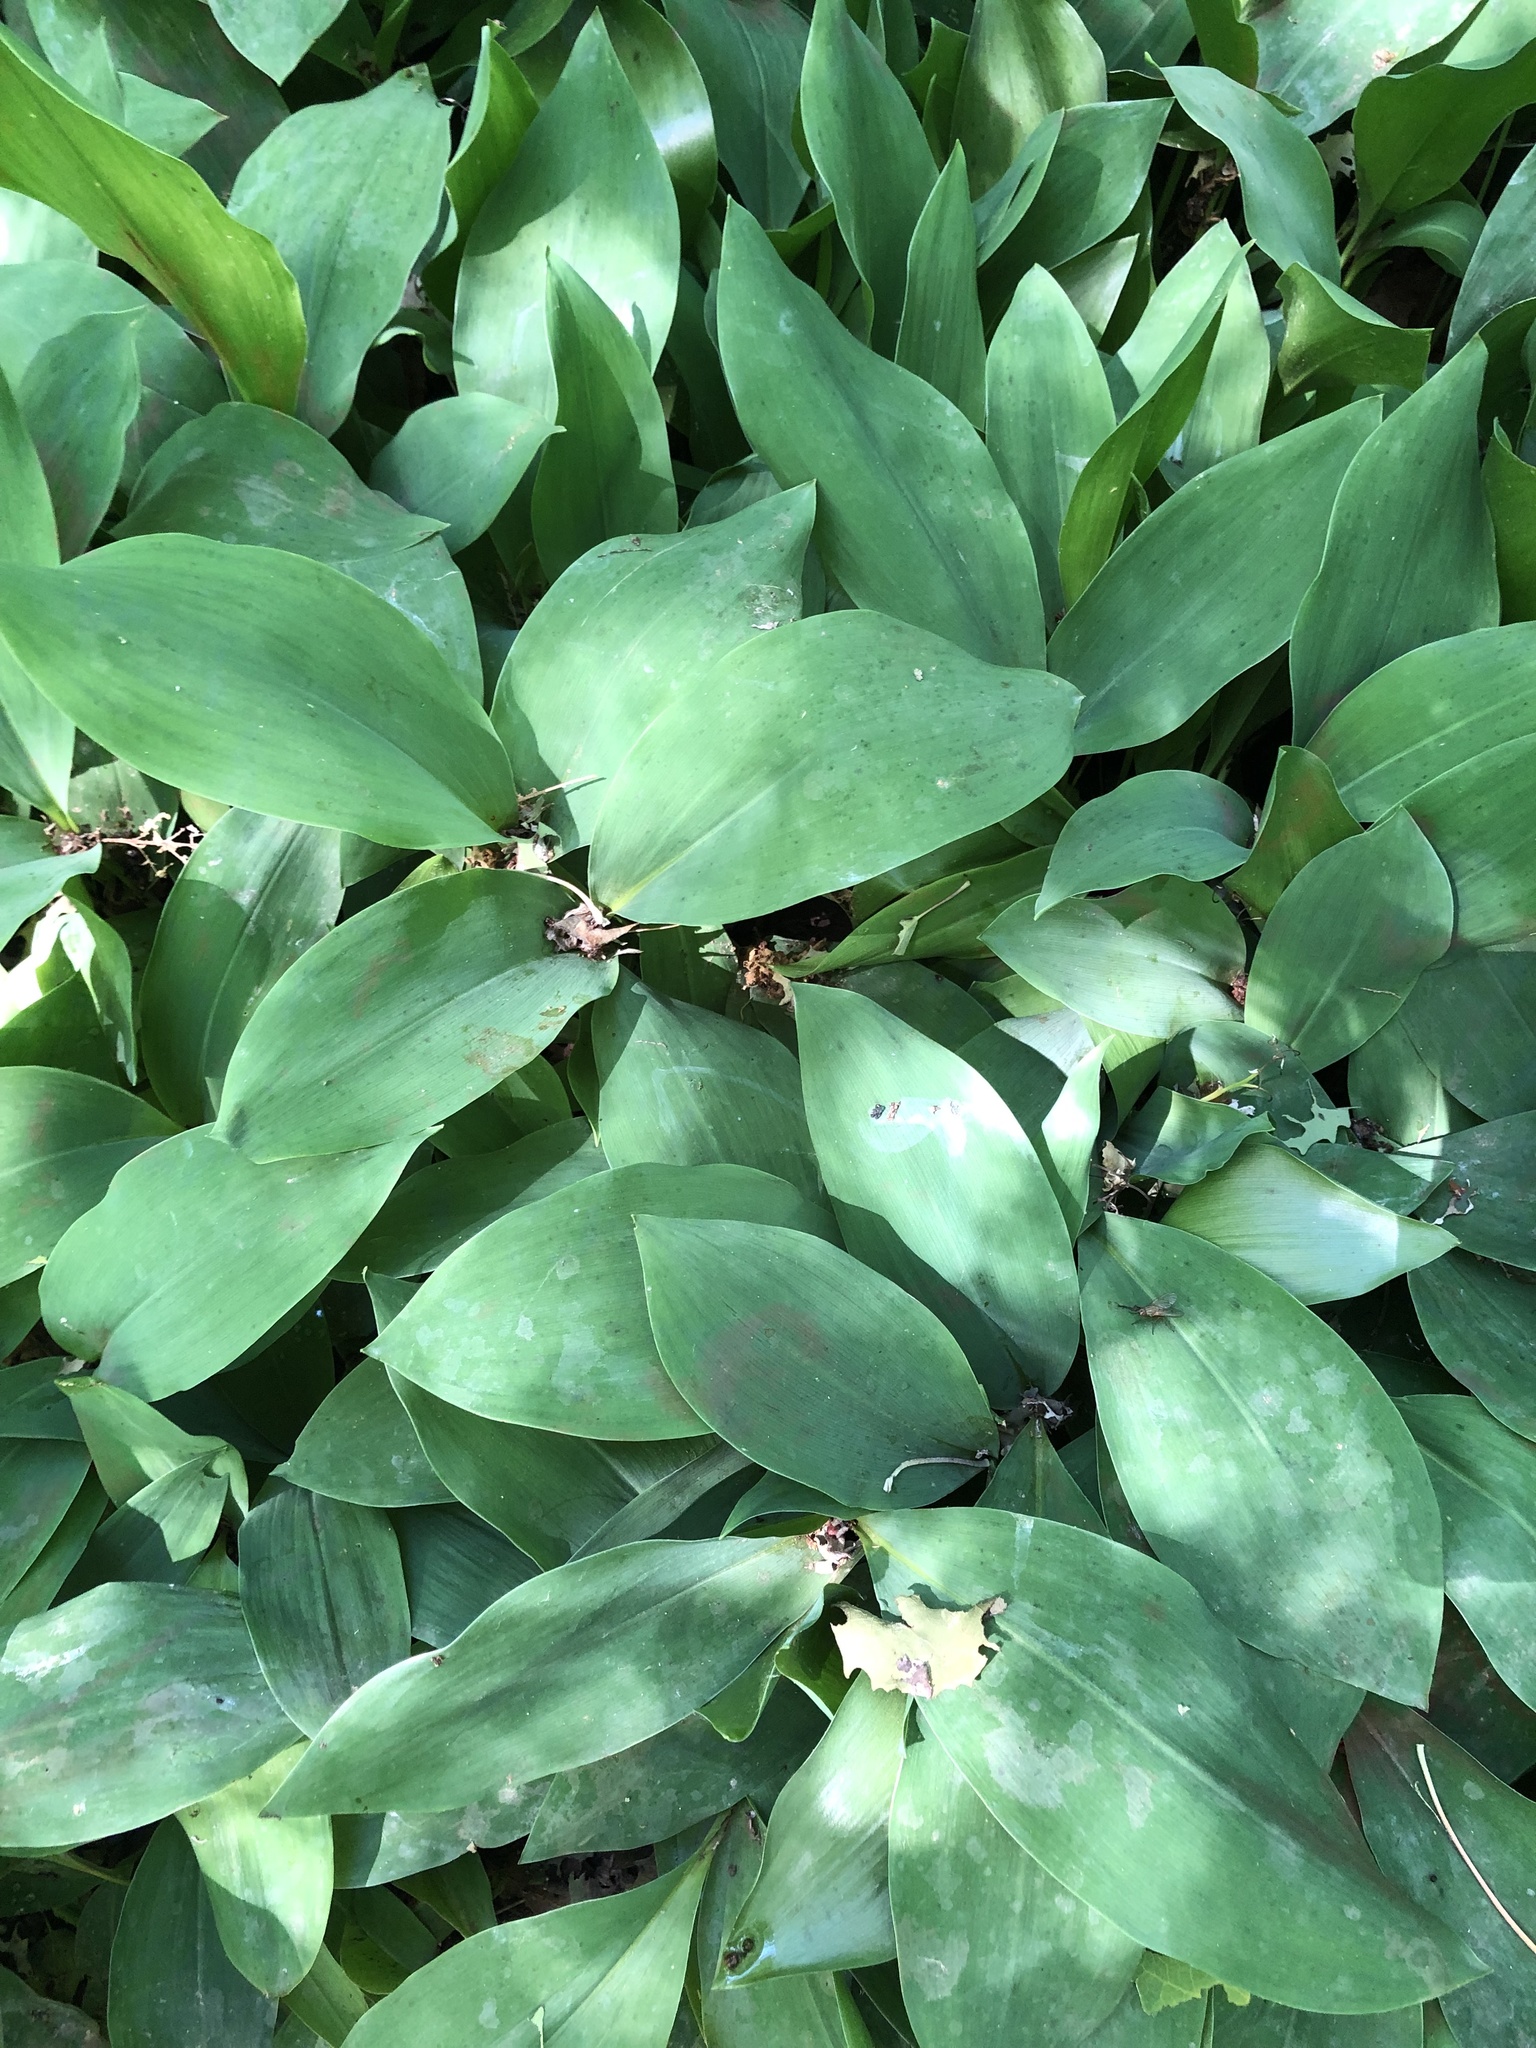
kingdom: Plantae
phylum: Tracheophyta
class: Liliopsida
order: Asparagales
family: Asparagaceae
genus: Convallaria
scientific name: Convallaria majalis
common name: Lily-of-the-valley
